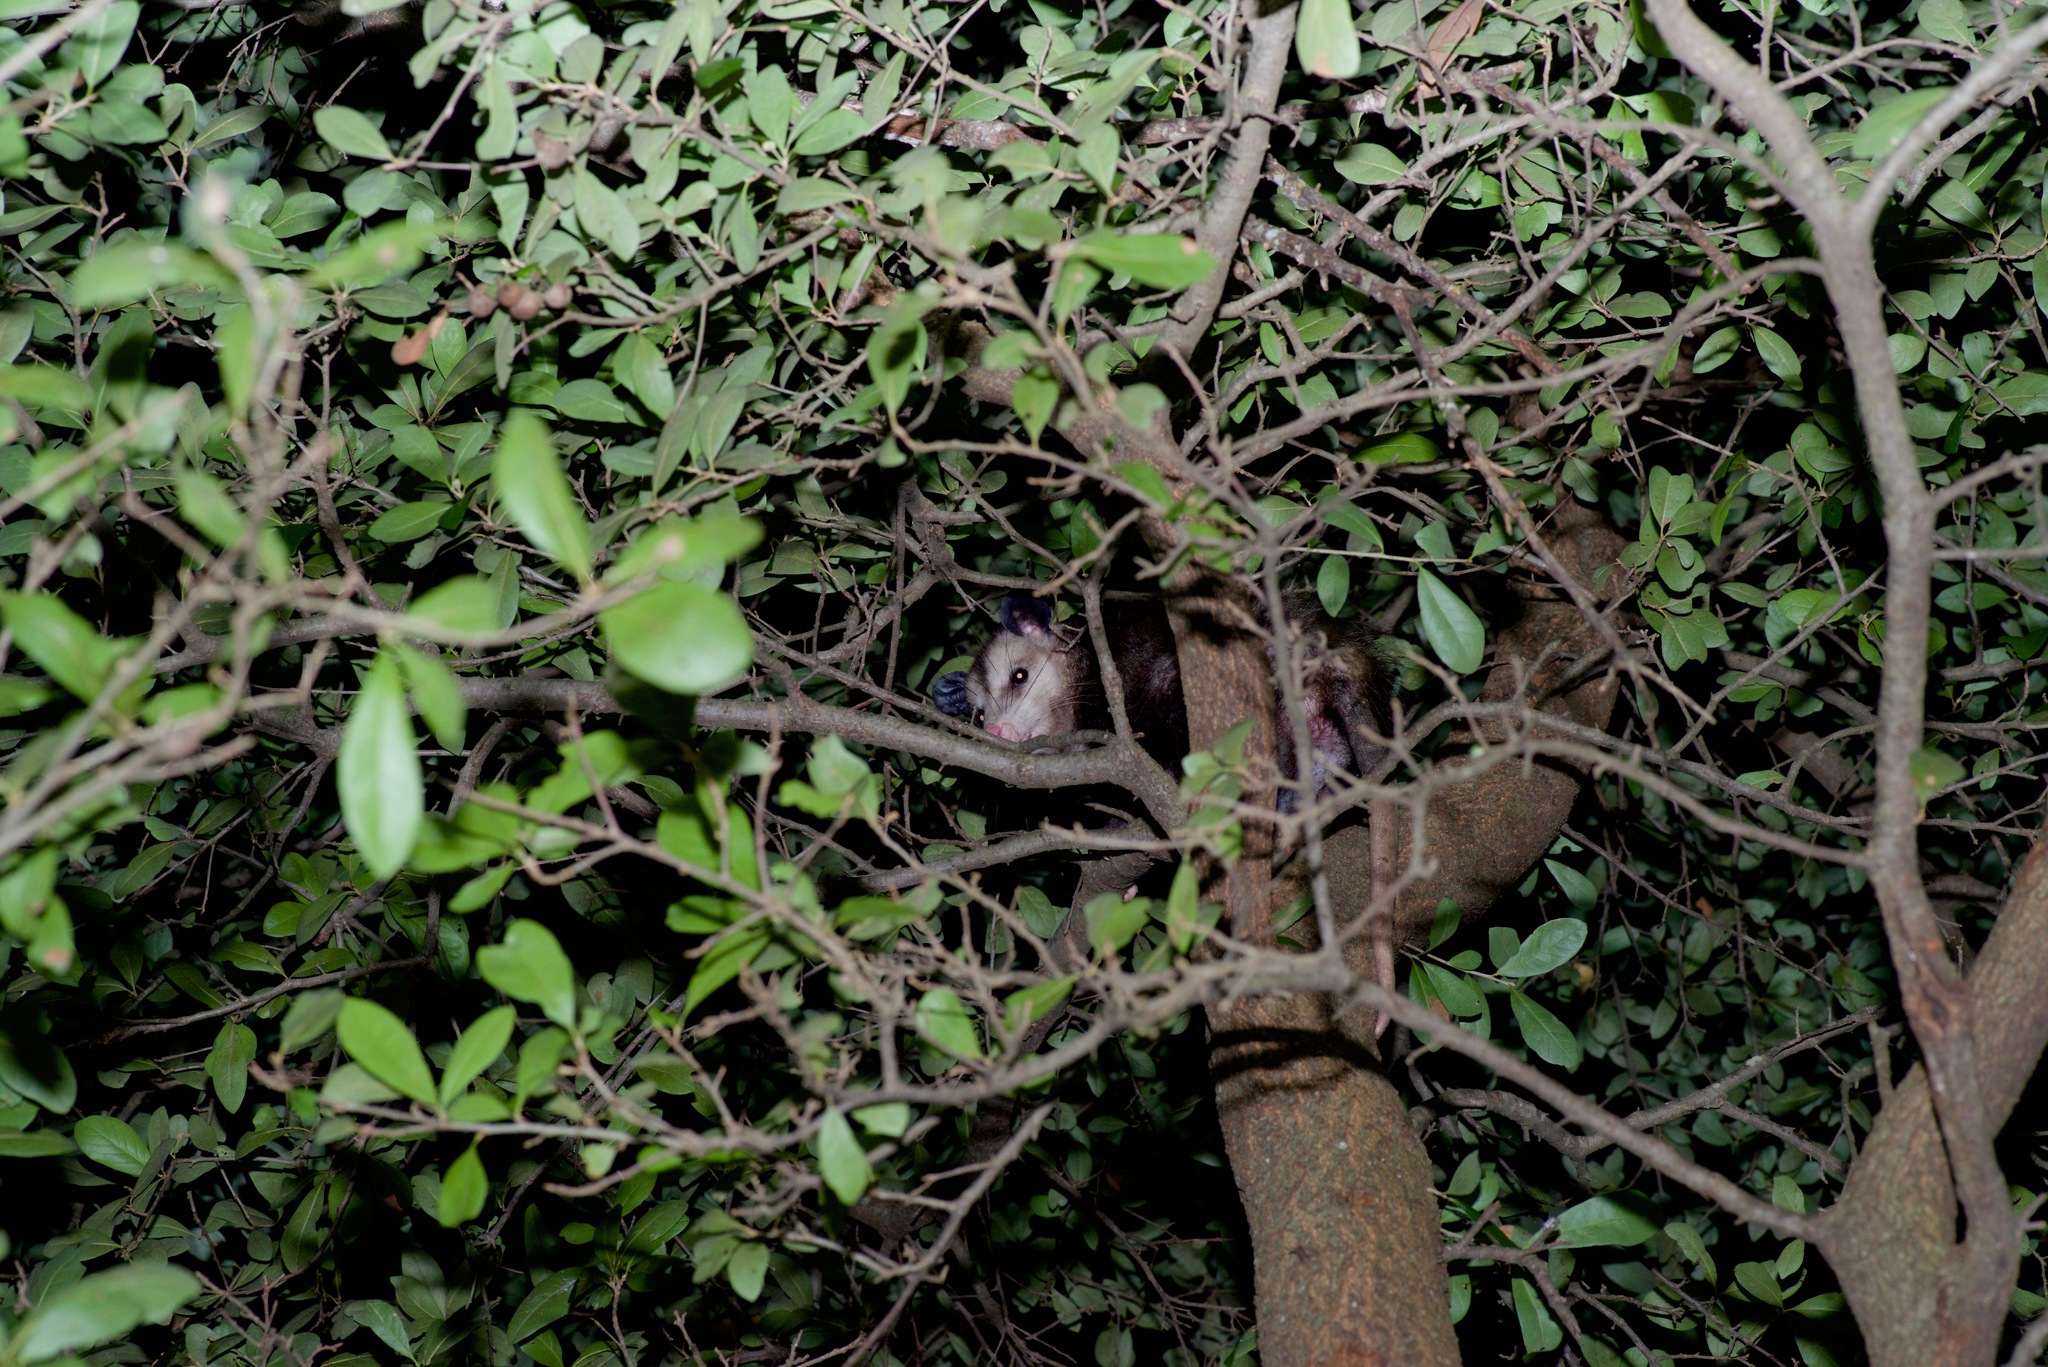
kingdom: Animalia
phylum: Chordata
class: Mammalia
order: Didelphimorphia
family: Didelphidae
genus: Didelphis
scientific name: Didelphis virginiana
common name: Virginia opossum
